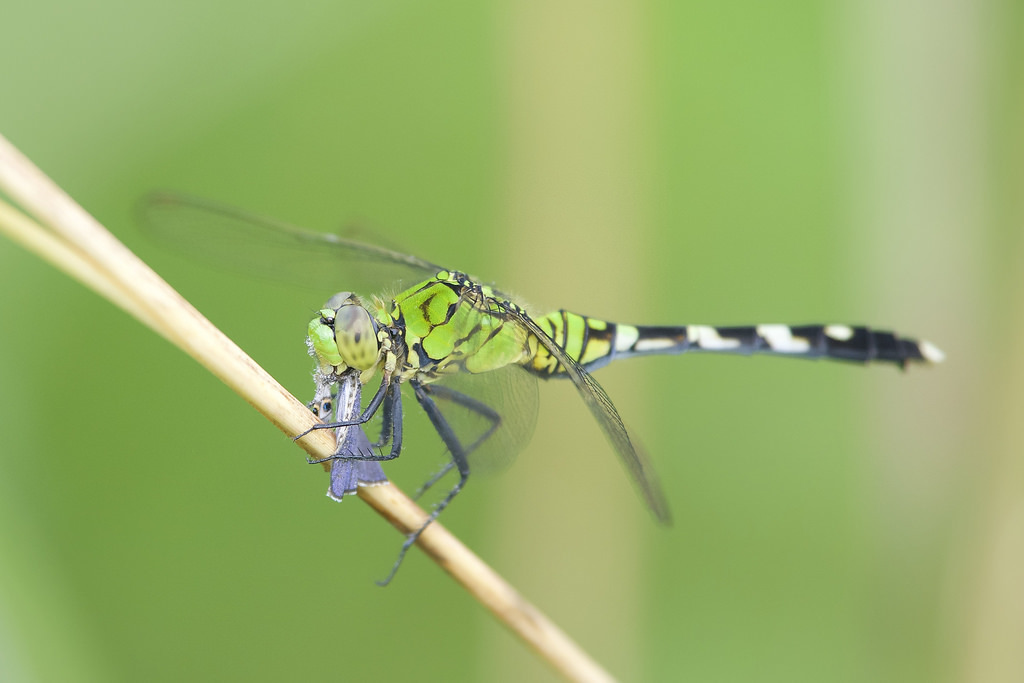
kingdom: Animalia
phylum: Arthropoda
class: Insecta
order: Odonata
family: Libellulidae
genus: Erythemis
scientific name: Erythemis simplicicollis
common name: Eastern pondhawk
